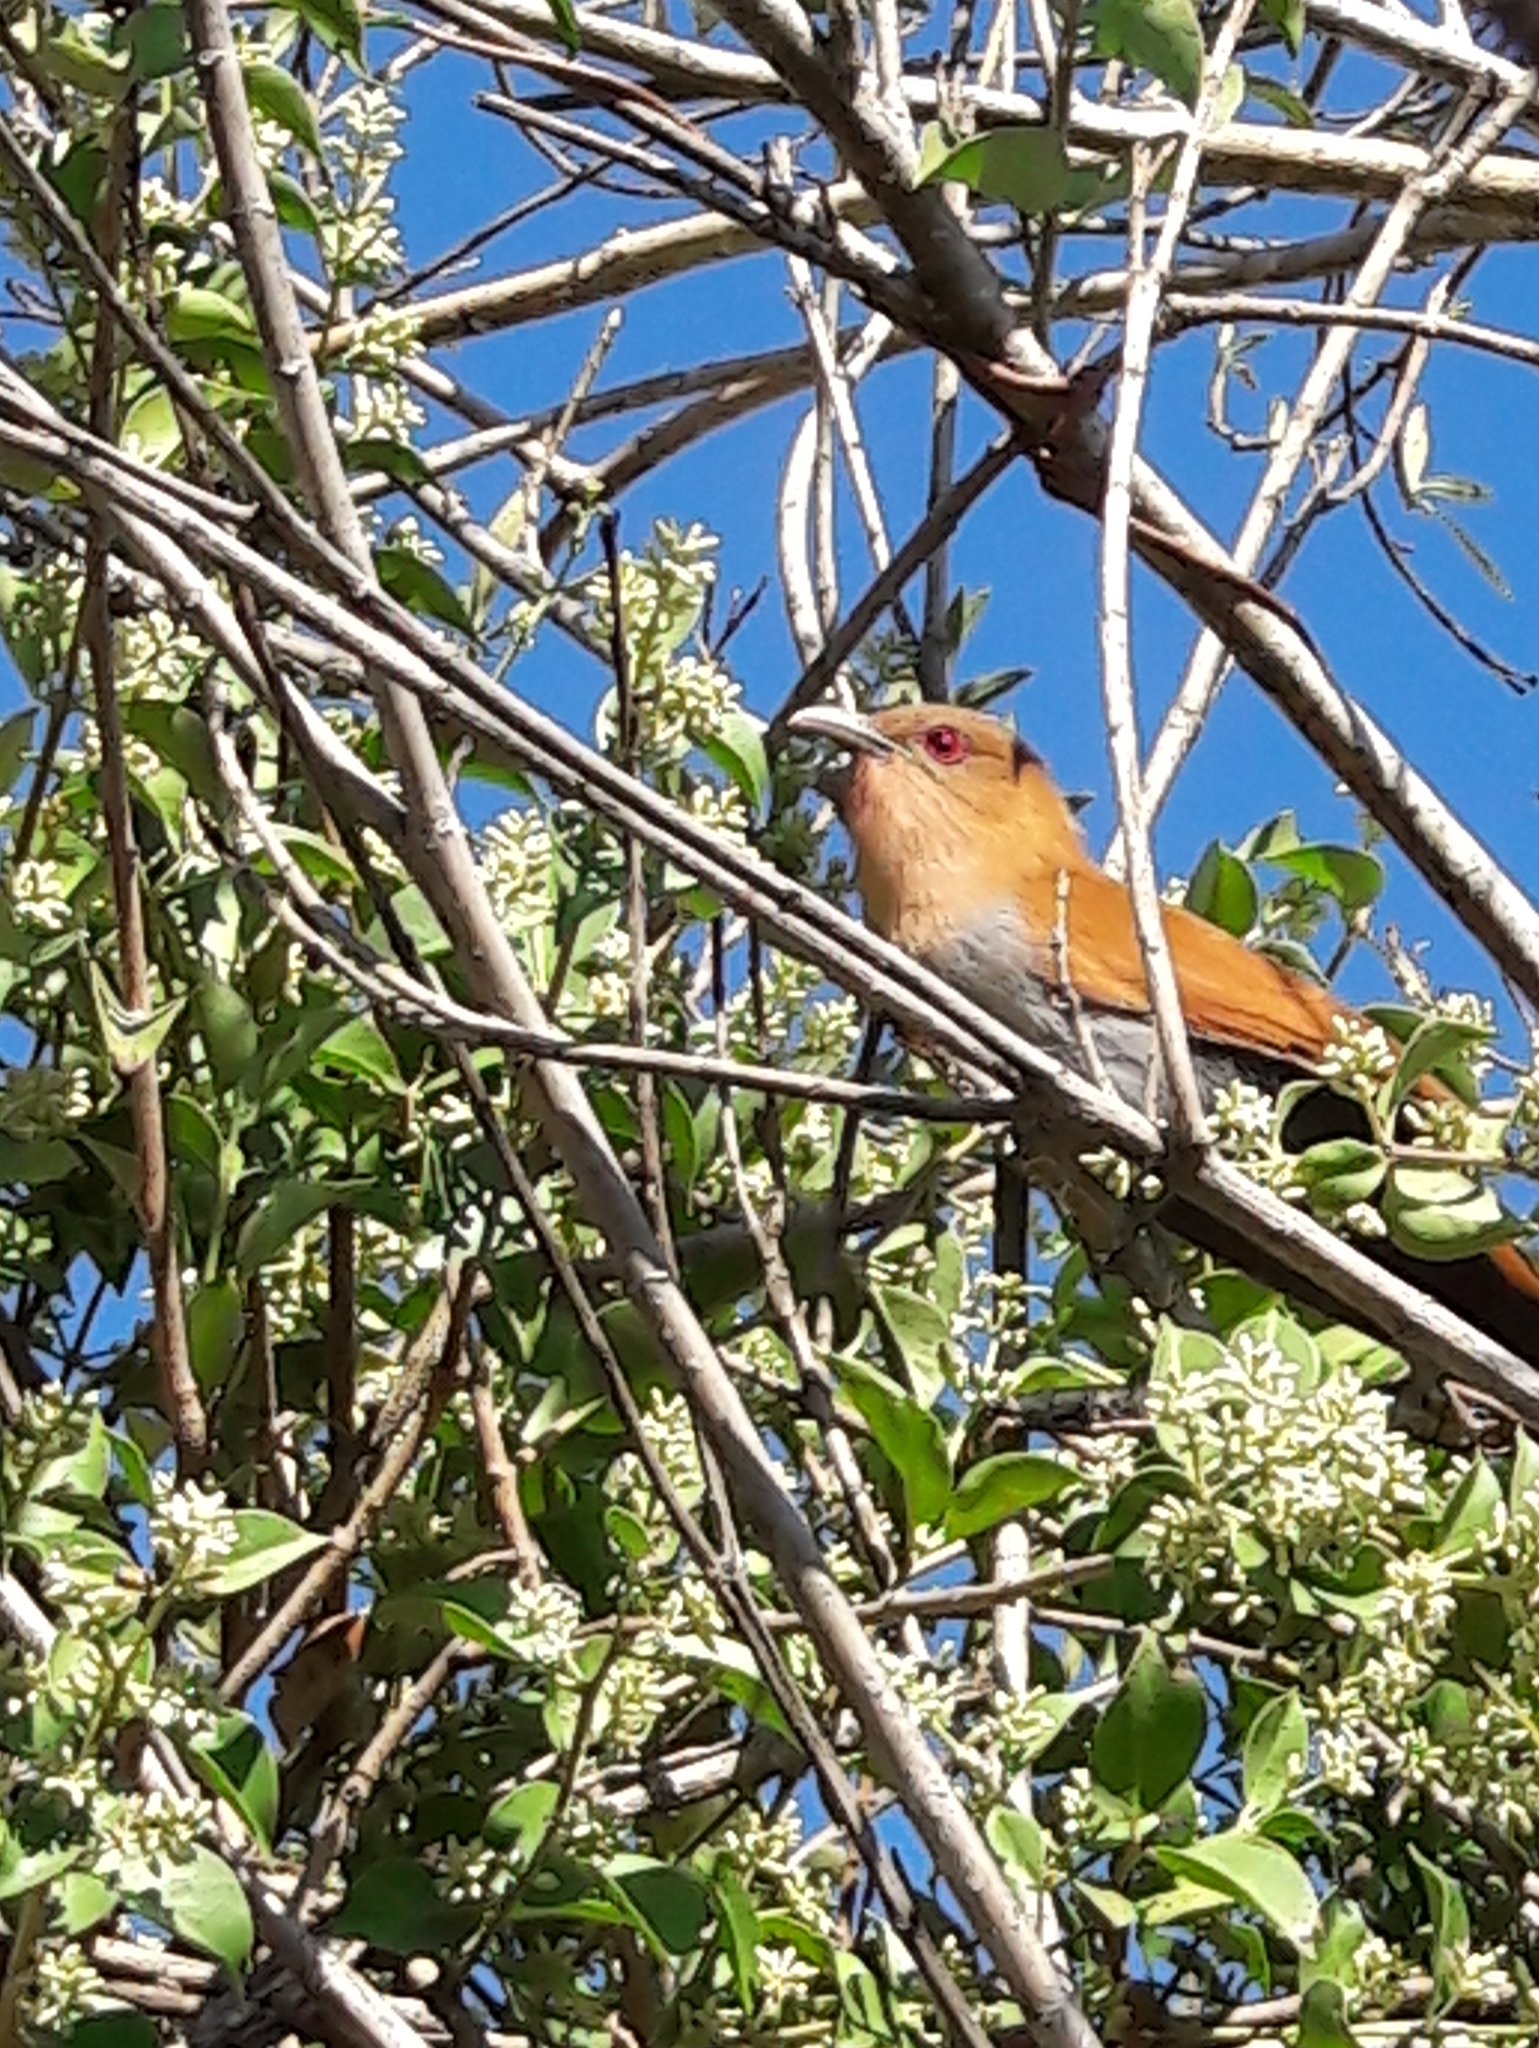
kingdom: Animalia
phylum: Chordata
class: Aves
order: Cuculiformes
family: Cuculidae
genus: Piaya
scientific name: Piaya cayana
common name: Squirrel cuckoo
